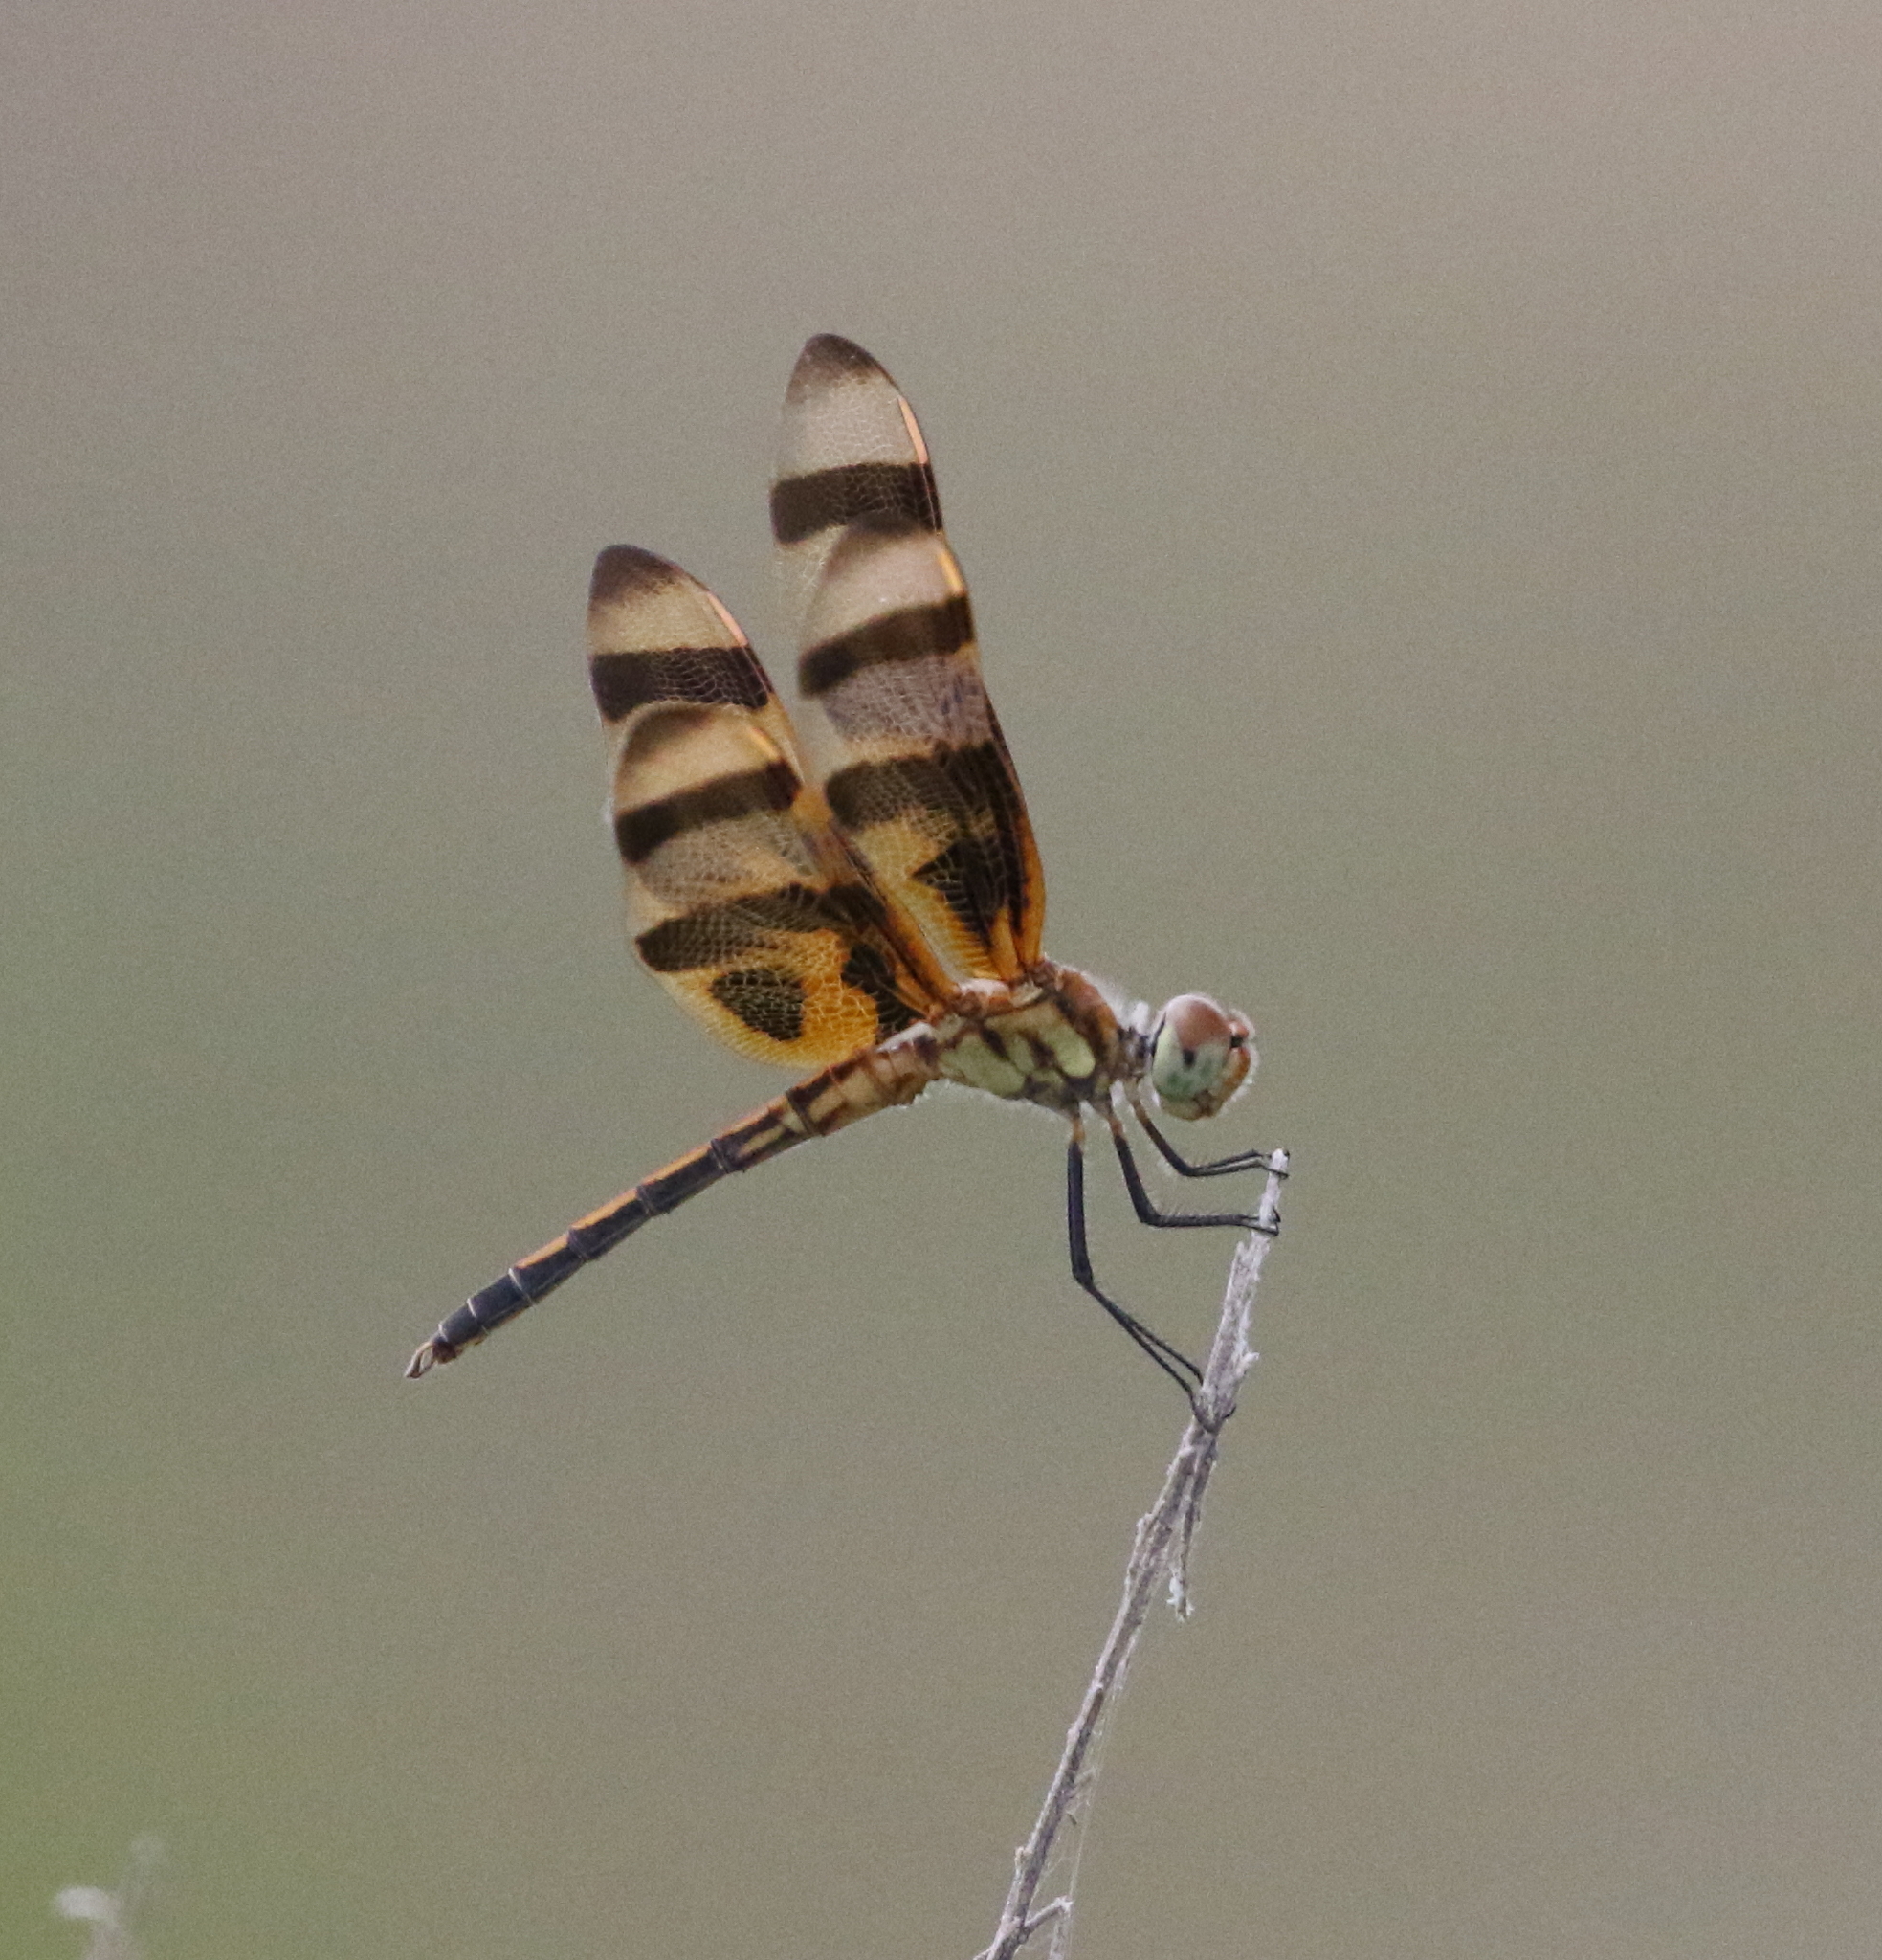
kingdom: Animalia
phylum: Arthropoda
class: Insecta
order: Odonata
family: Libellulidae
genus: Celithemis
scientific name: Celithemis eponina
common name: Halloween pennant
